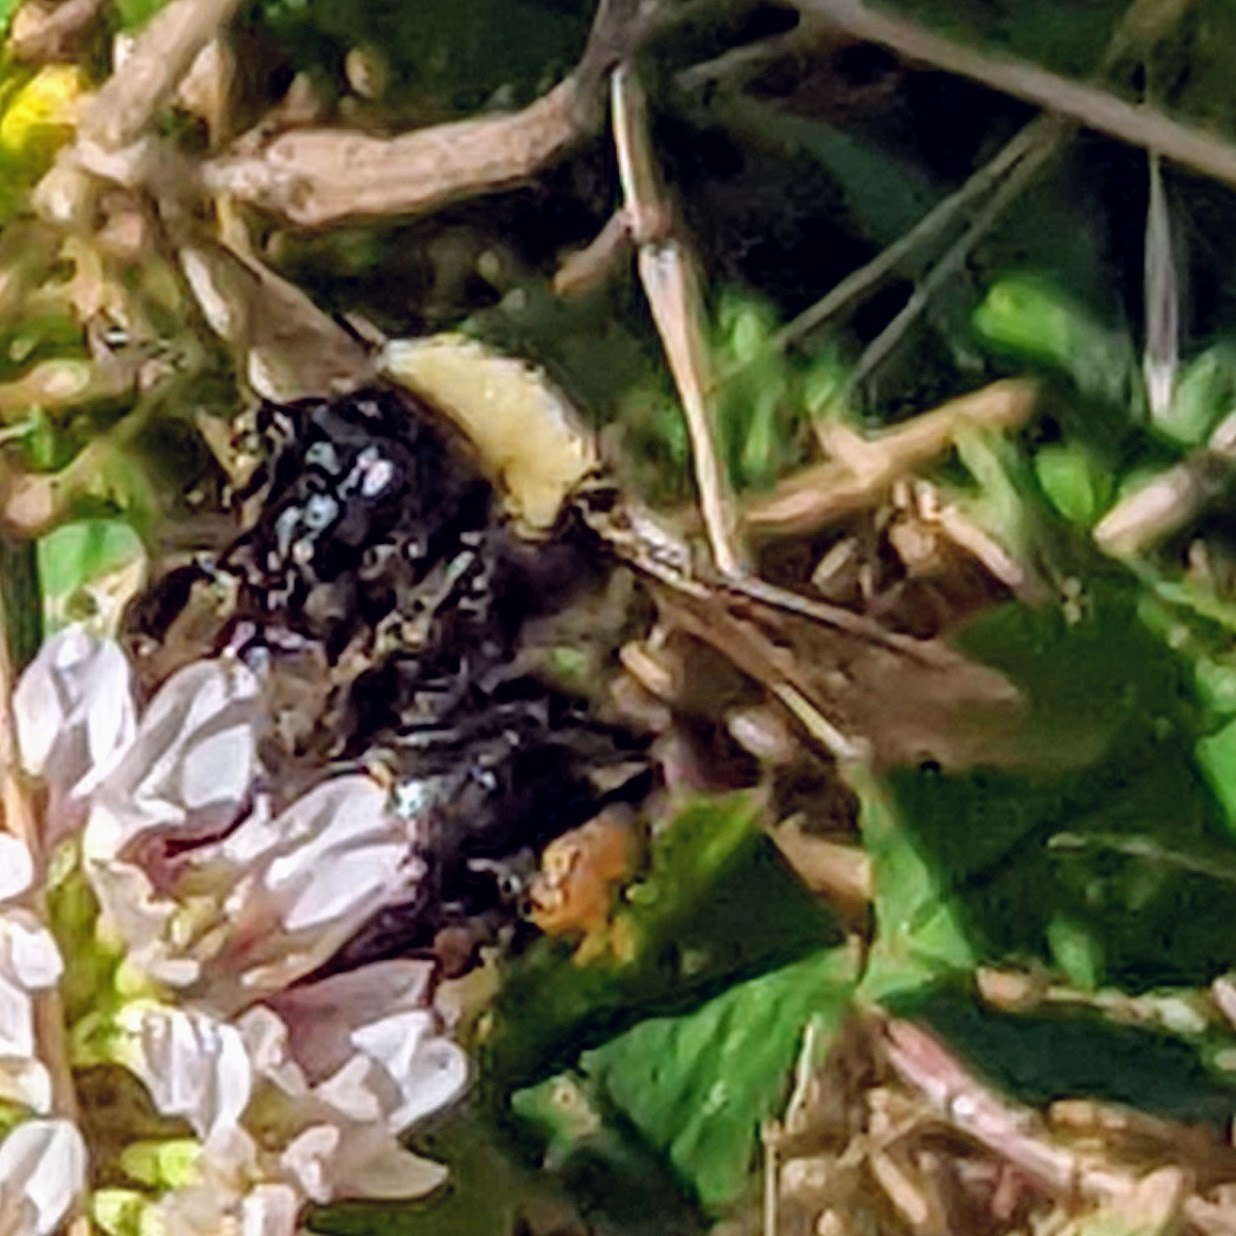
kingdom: Animalia
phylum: Arthropoda
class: Insecta
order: Hymenoptera
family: Apidae
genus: Bombus
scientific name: Bombus californicus
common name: California bumble bee
